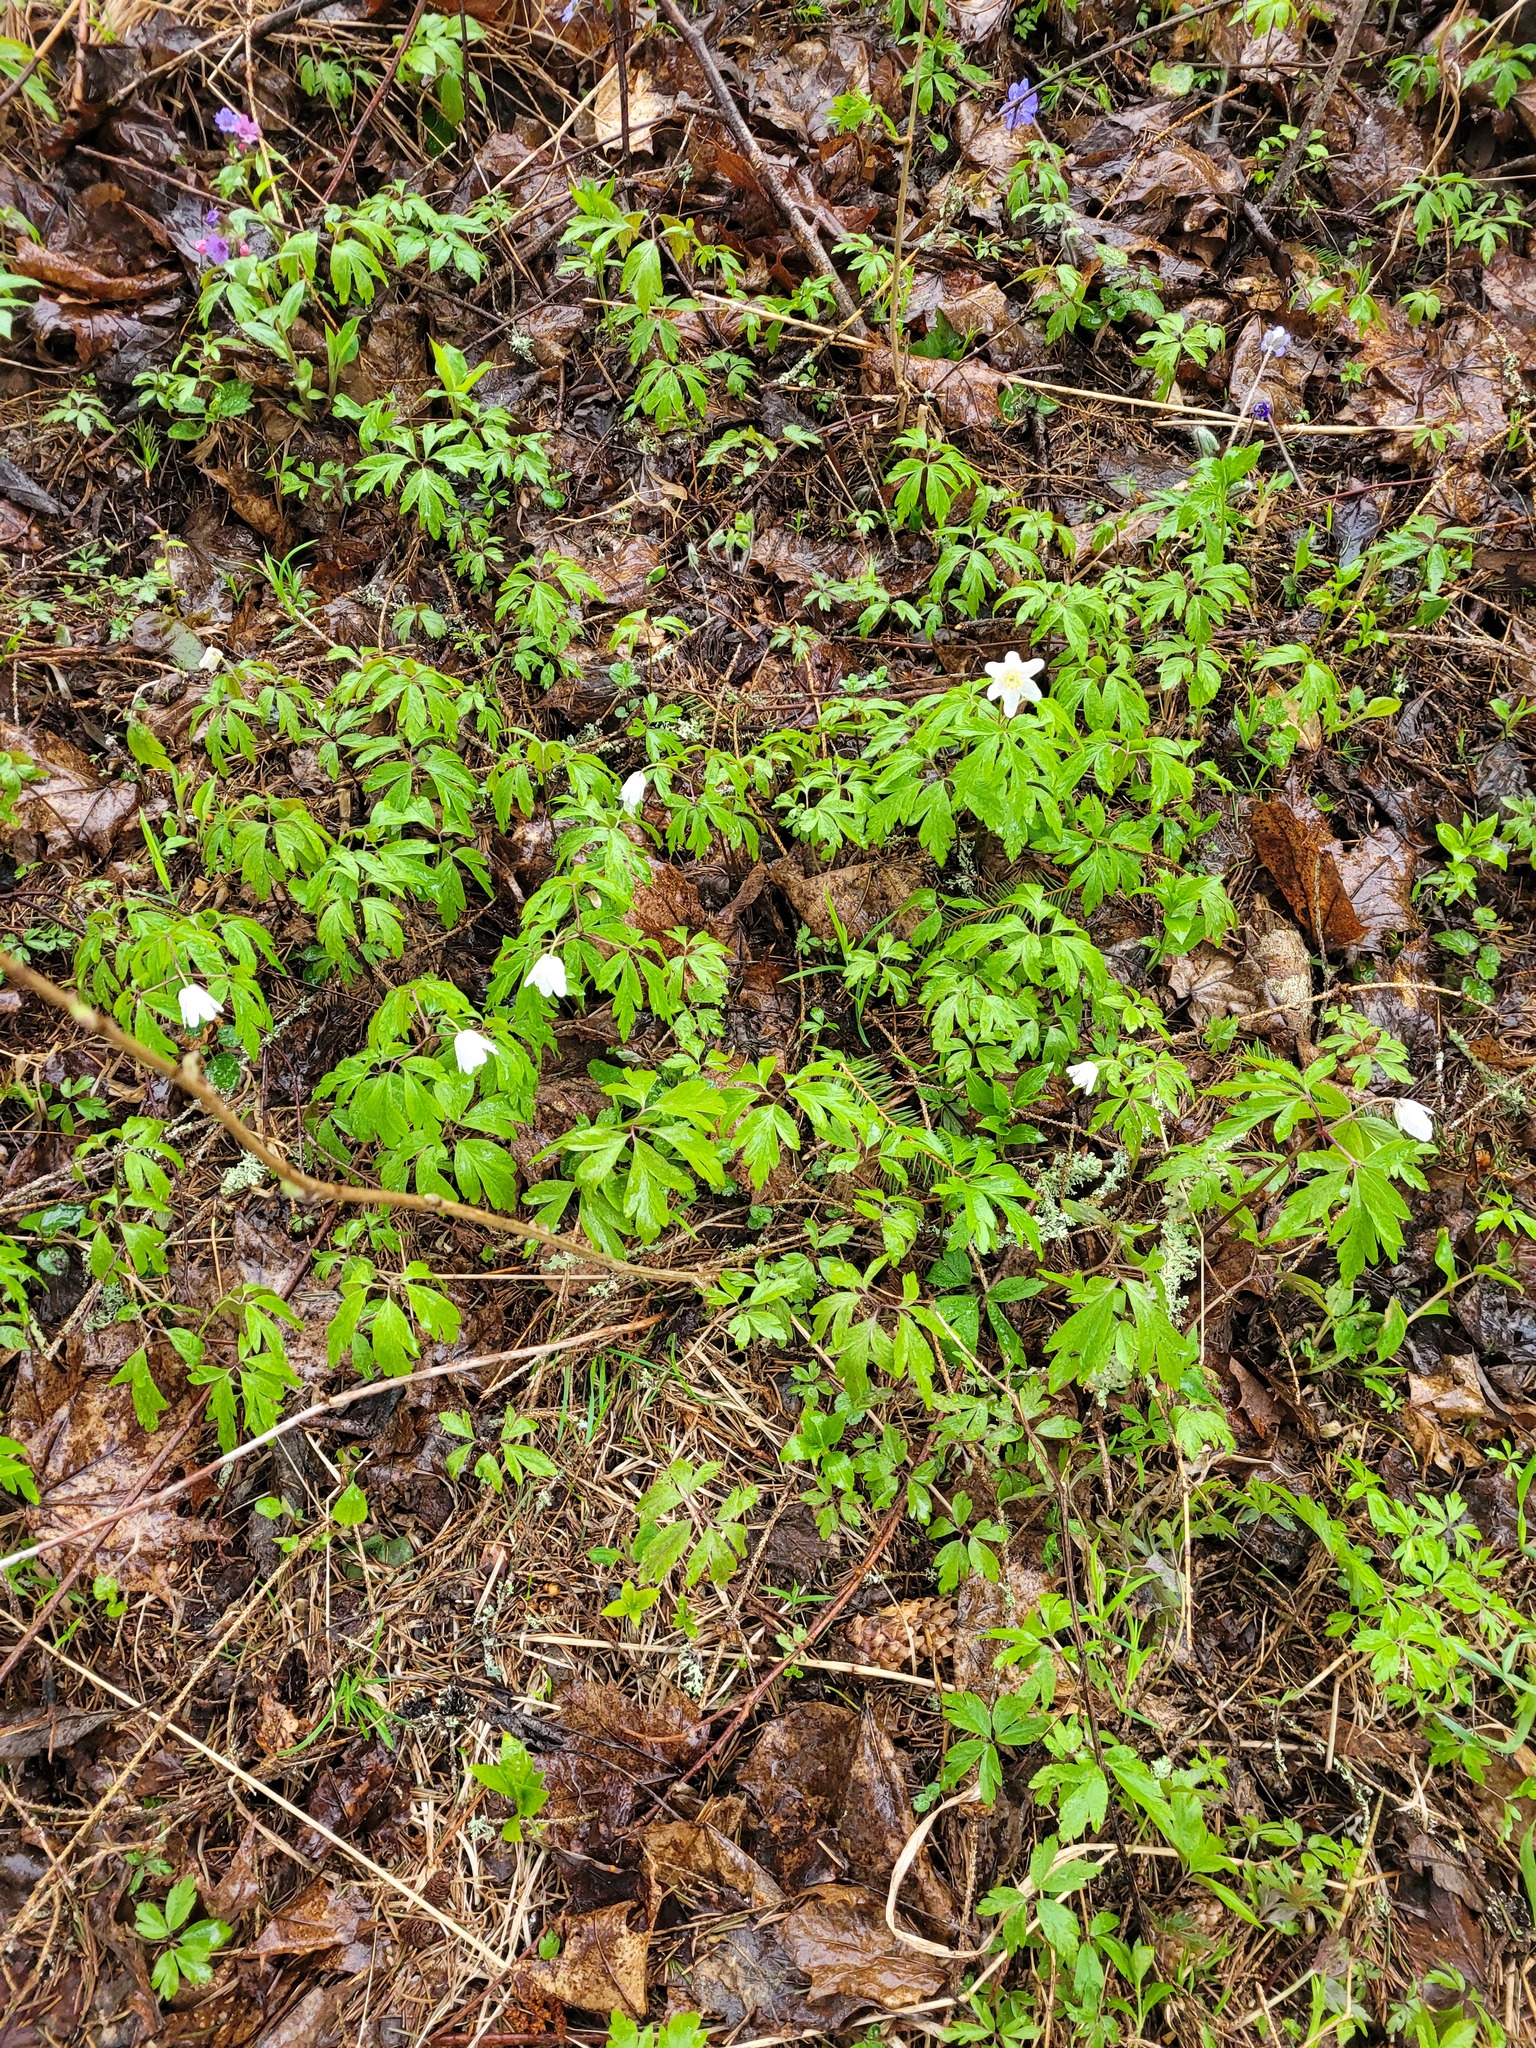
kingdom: Plantae
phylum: Tracheophyta
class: Magnoliopsida
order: Ranunculales
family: Ranunculaceae
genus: Anemone
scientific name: Anemone nemorosa
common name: Wood anemone
